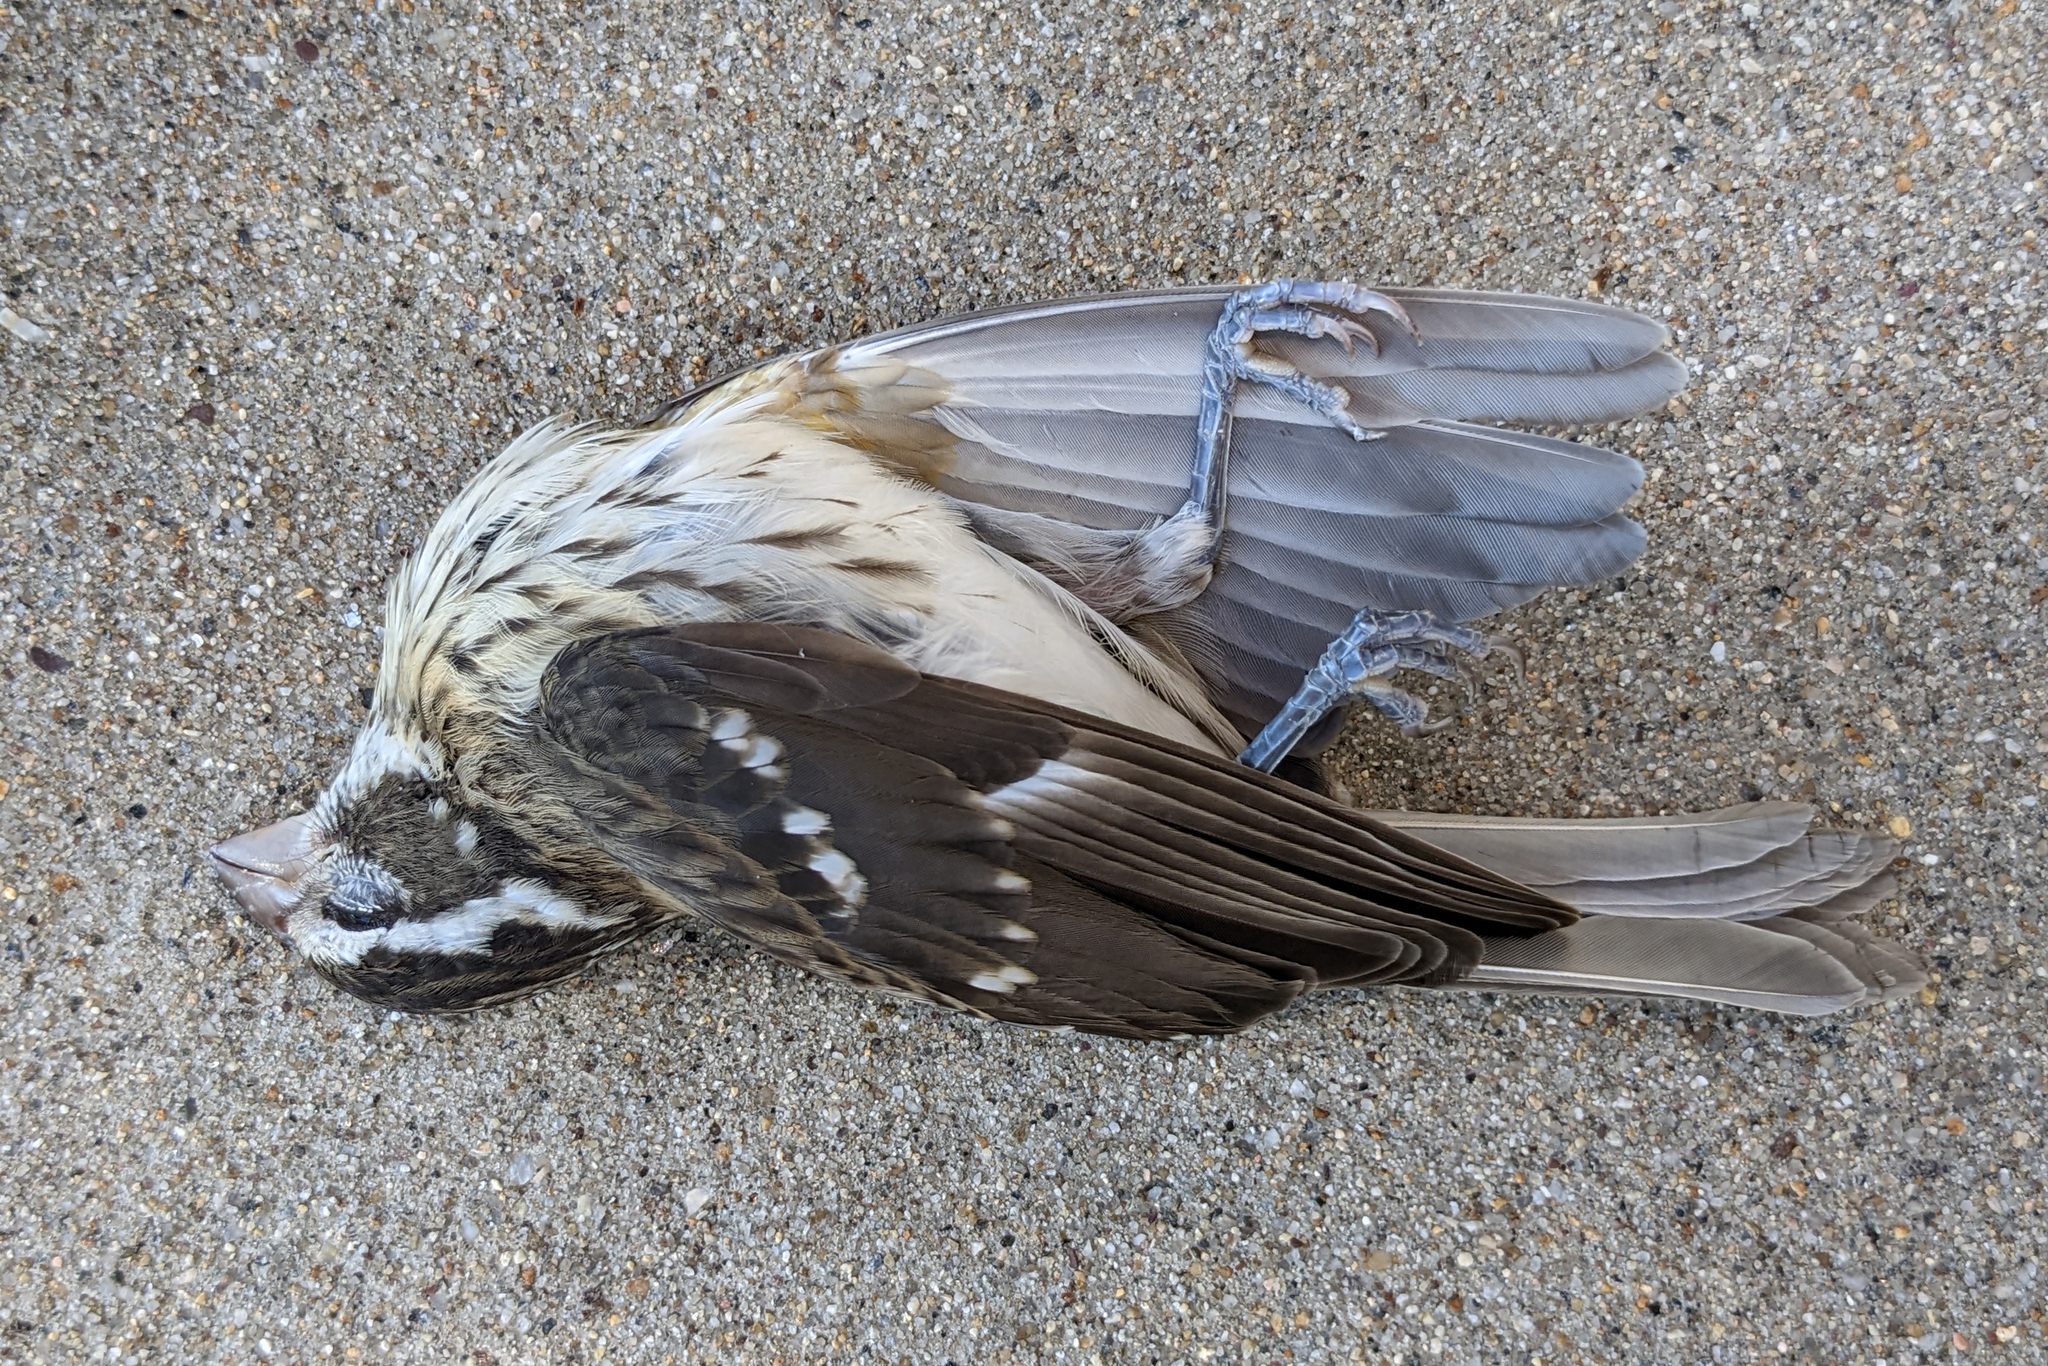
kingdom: Animalia
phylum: Chordata
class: Aves
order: Passeriformes
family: Cardinalidae
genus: Pheucticus
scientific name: Pheucticus ludovicianus
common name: Rose-breasted grosbeak
